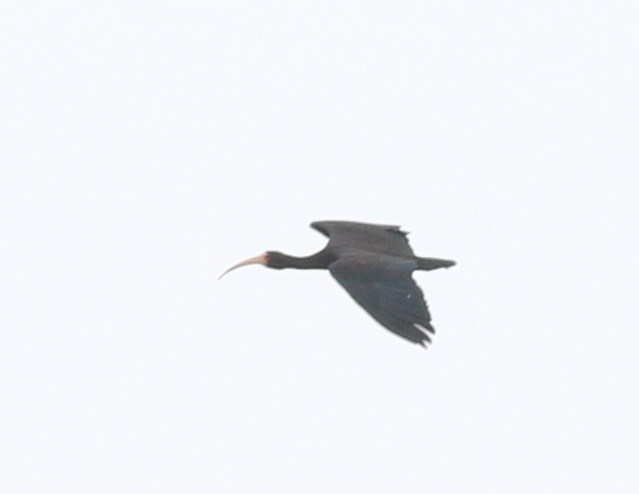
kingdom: Animalia
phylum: Chordata
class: Aves
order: Pelecaniformes
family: Threskiornithidae
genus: Phimosus
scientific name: Phimosus infuscatus
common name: Bare-faced ibis
